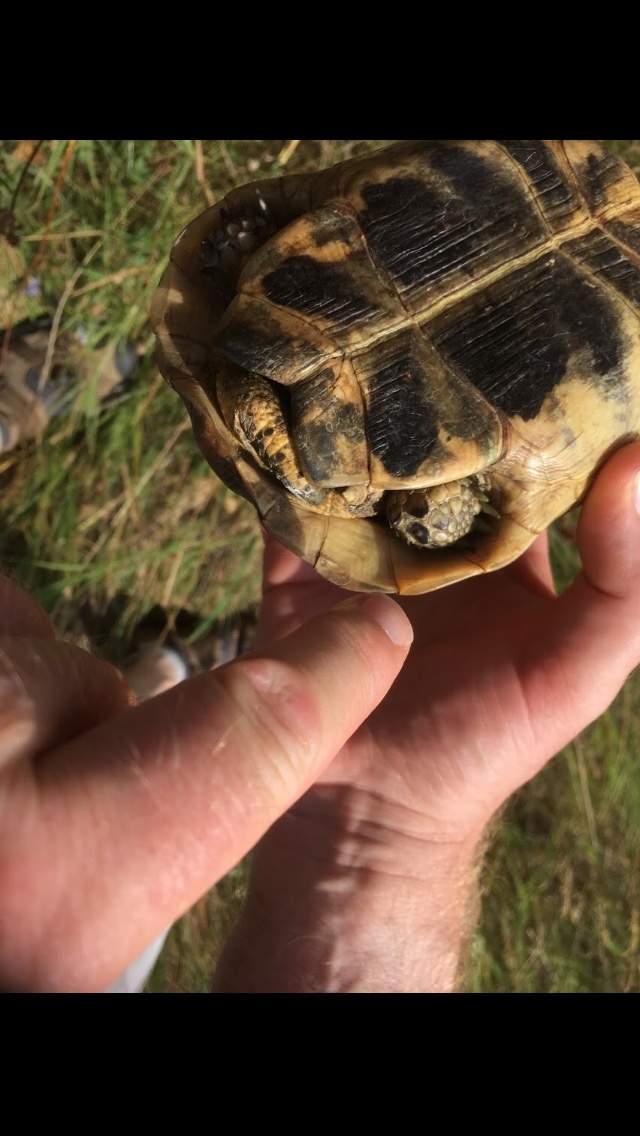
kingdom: Animalia
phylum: Chordata
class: Testudines
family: Testudinidae
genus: Testudo
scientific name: Testudo graeca
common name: Common tortoise
